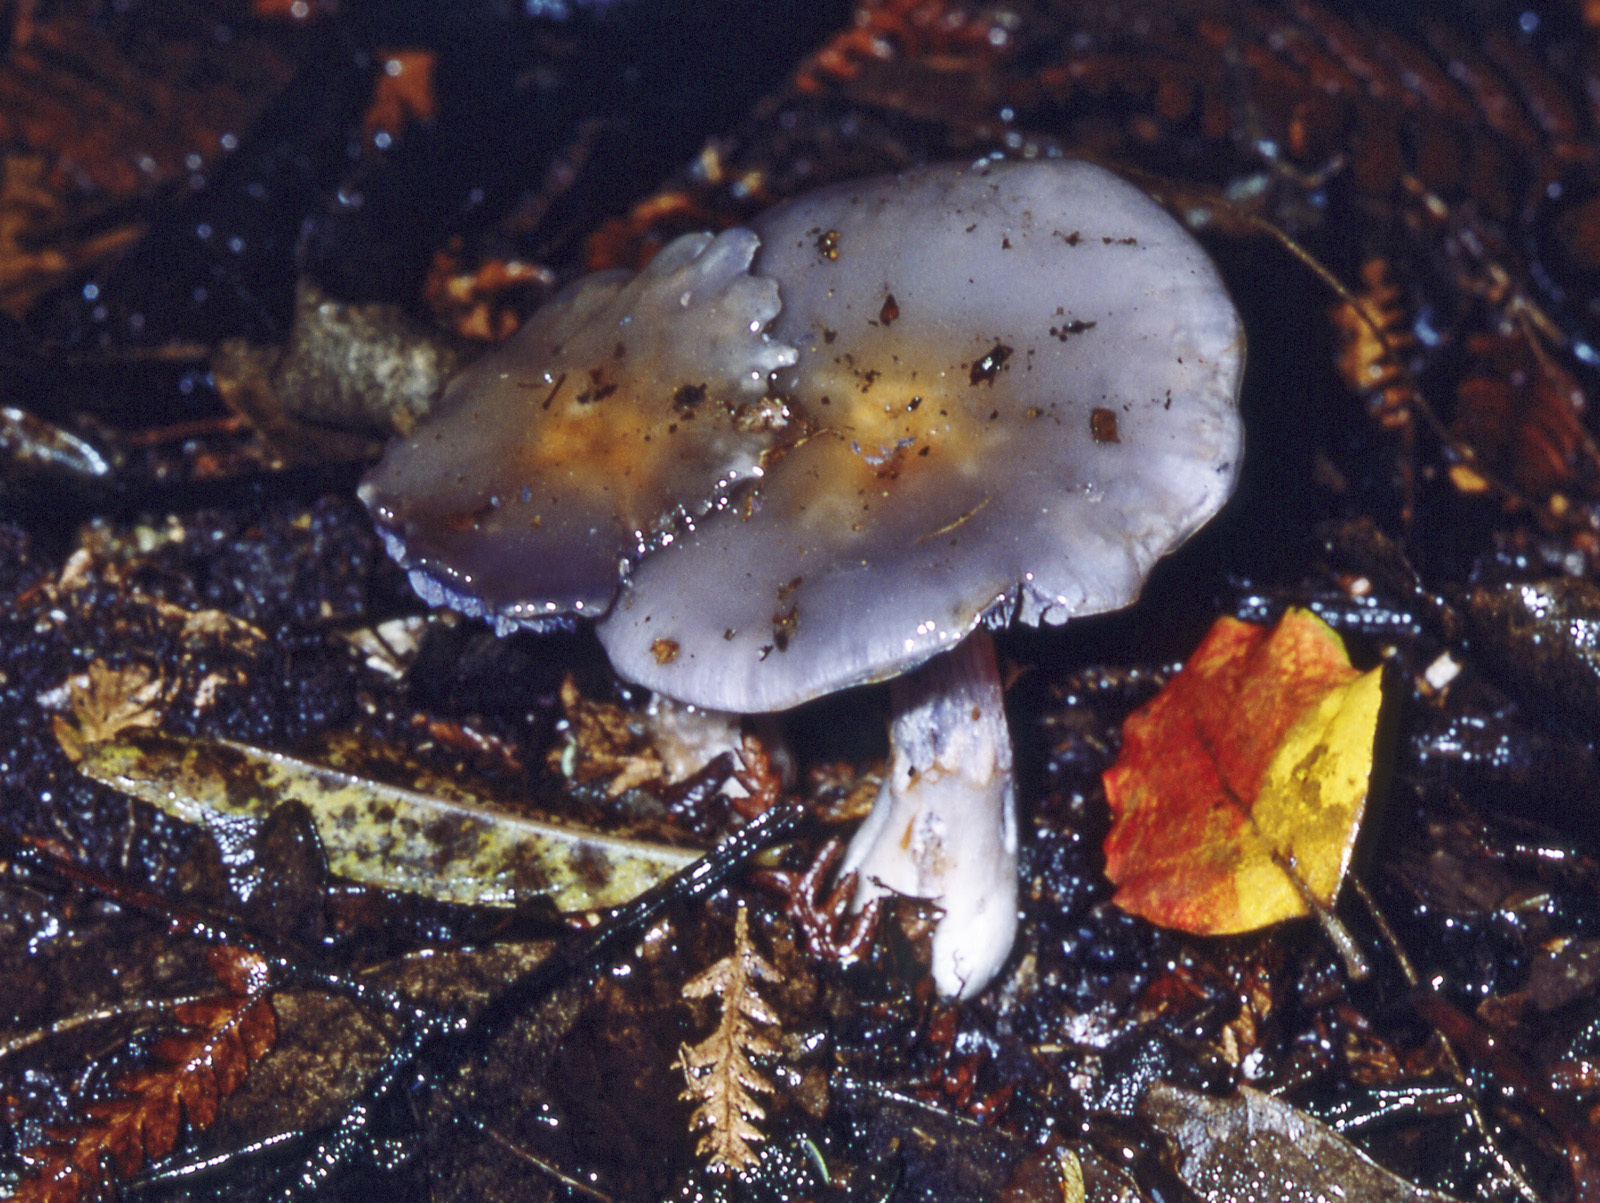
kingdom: Fungi
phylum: Basidiomycota
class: Agaricomycetes
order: Agaricales
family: Cortinariaceae
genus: Cortinarius
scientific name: Cortinarius taylorianus
